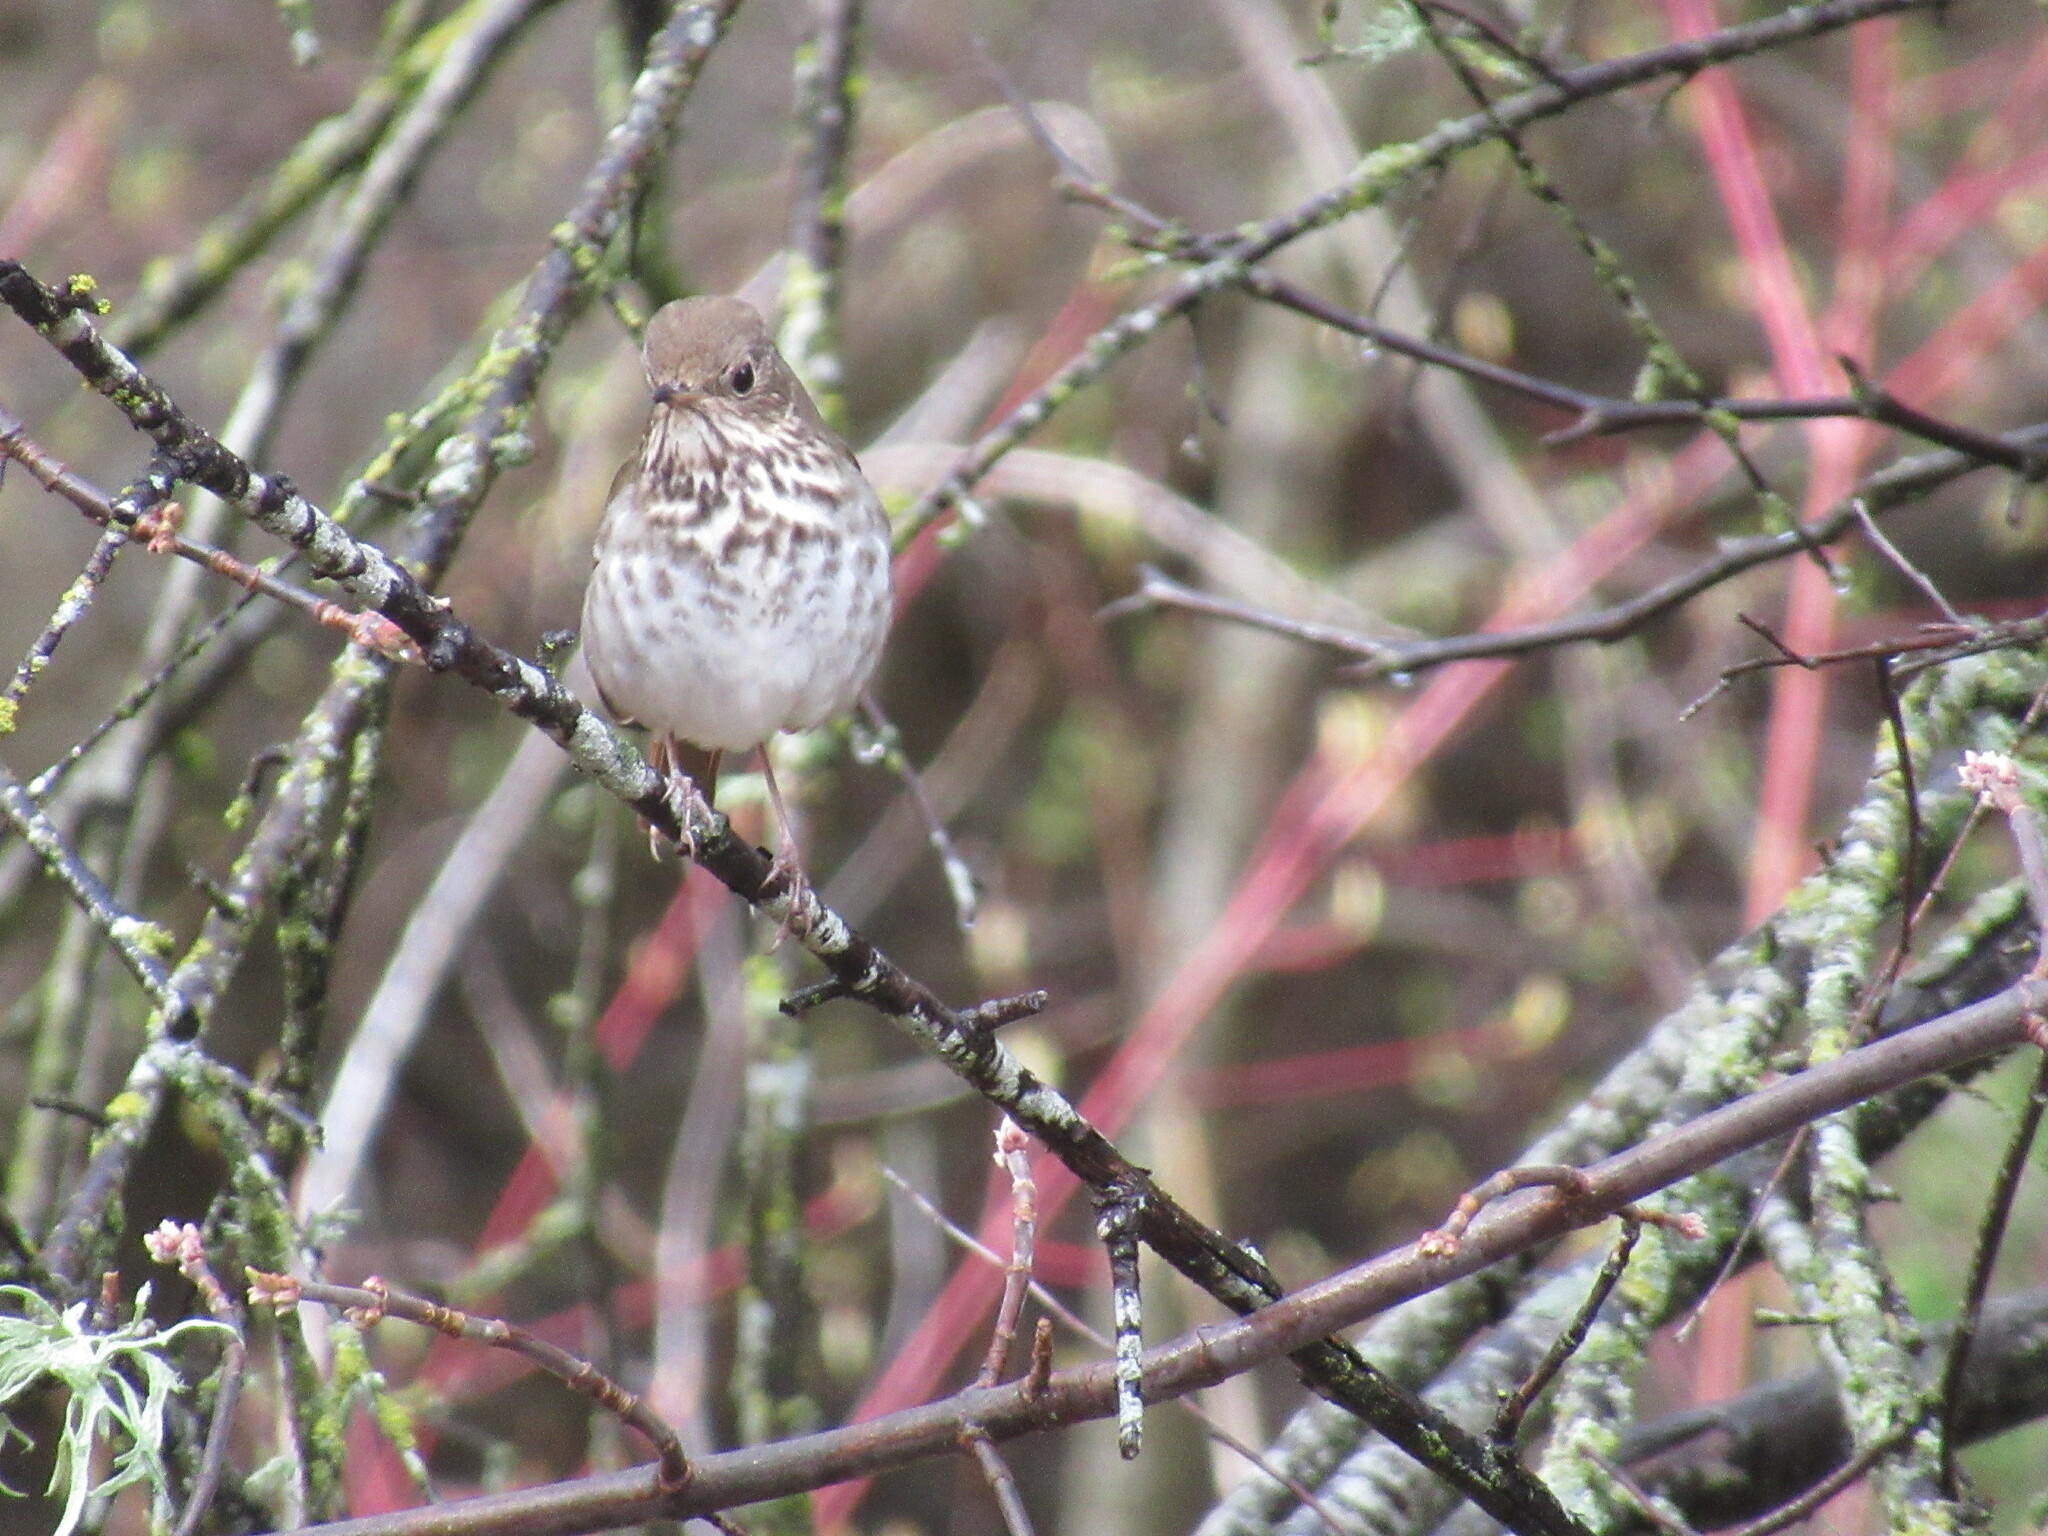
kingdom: Animalia
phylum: Chordata
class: Aves
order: Passeriformes
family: Turdidae
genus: Catharus
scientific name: Catharus guttatus
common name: Hermit thrush
